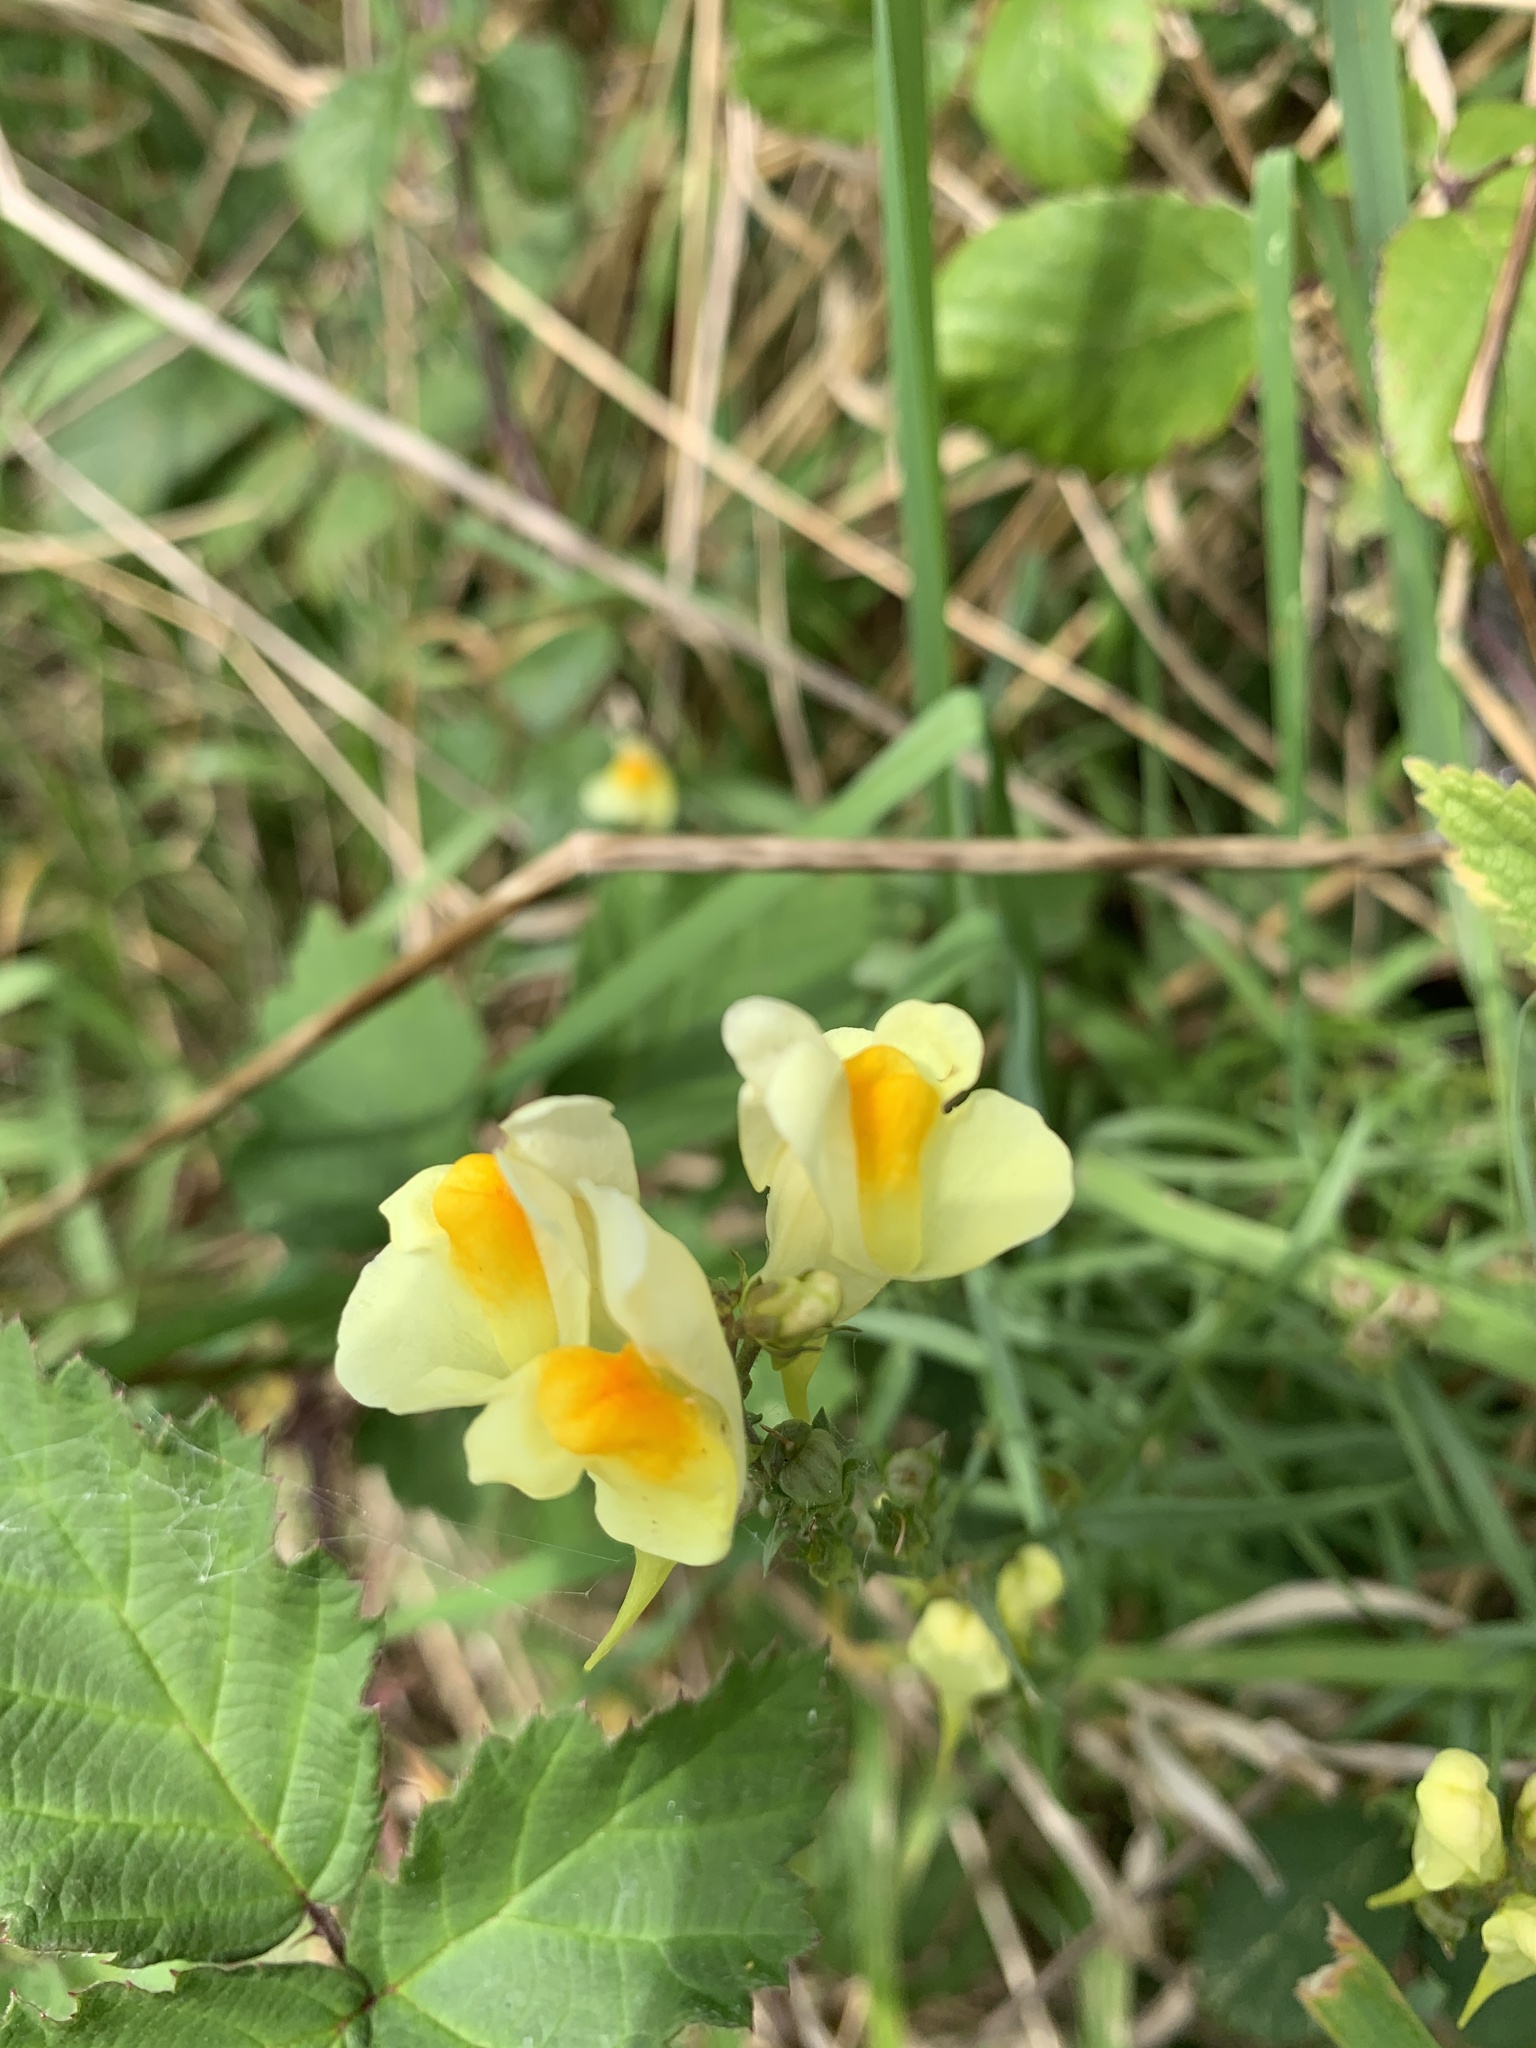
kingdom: Plantae
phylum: Tracheophyta
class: Magnoliopsida
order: Lamiales
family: Plantaginaceae
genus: Linaria
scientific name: Linaria vulgaris
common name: Butter and eggs
